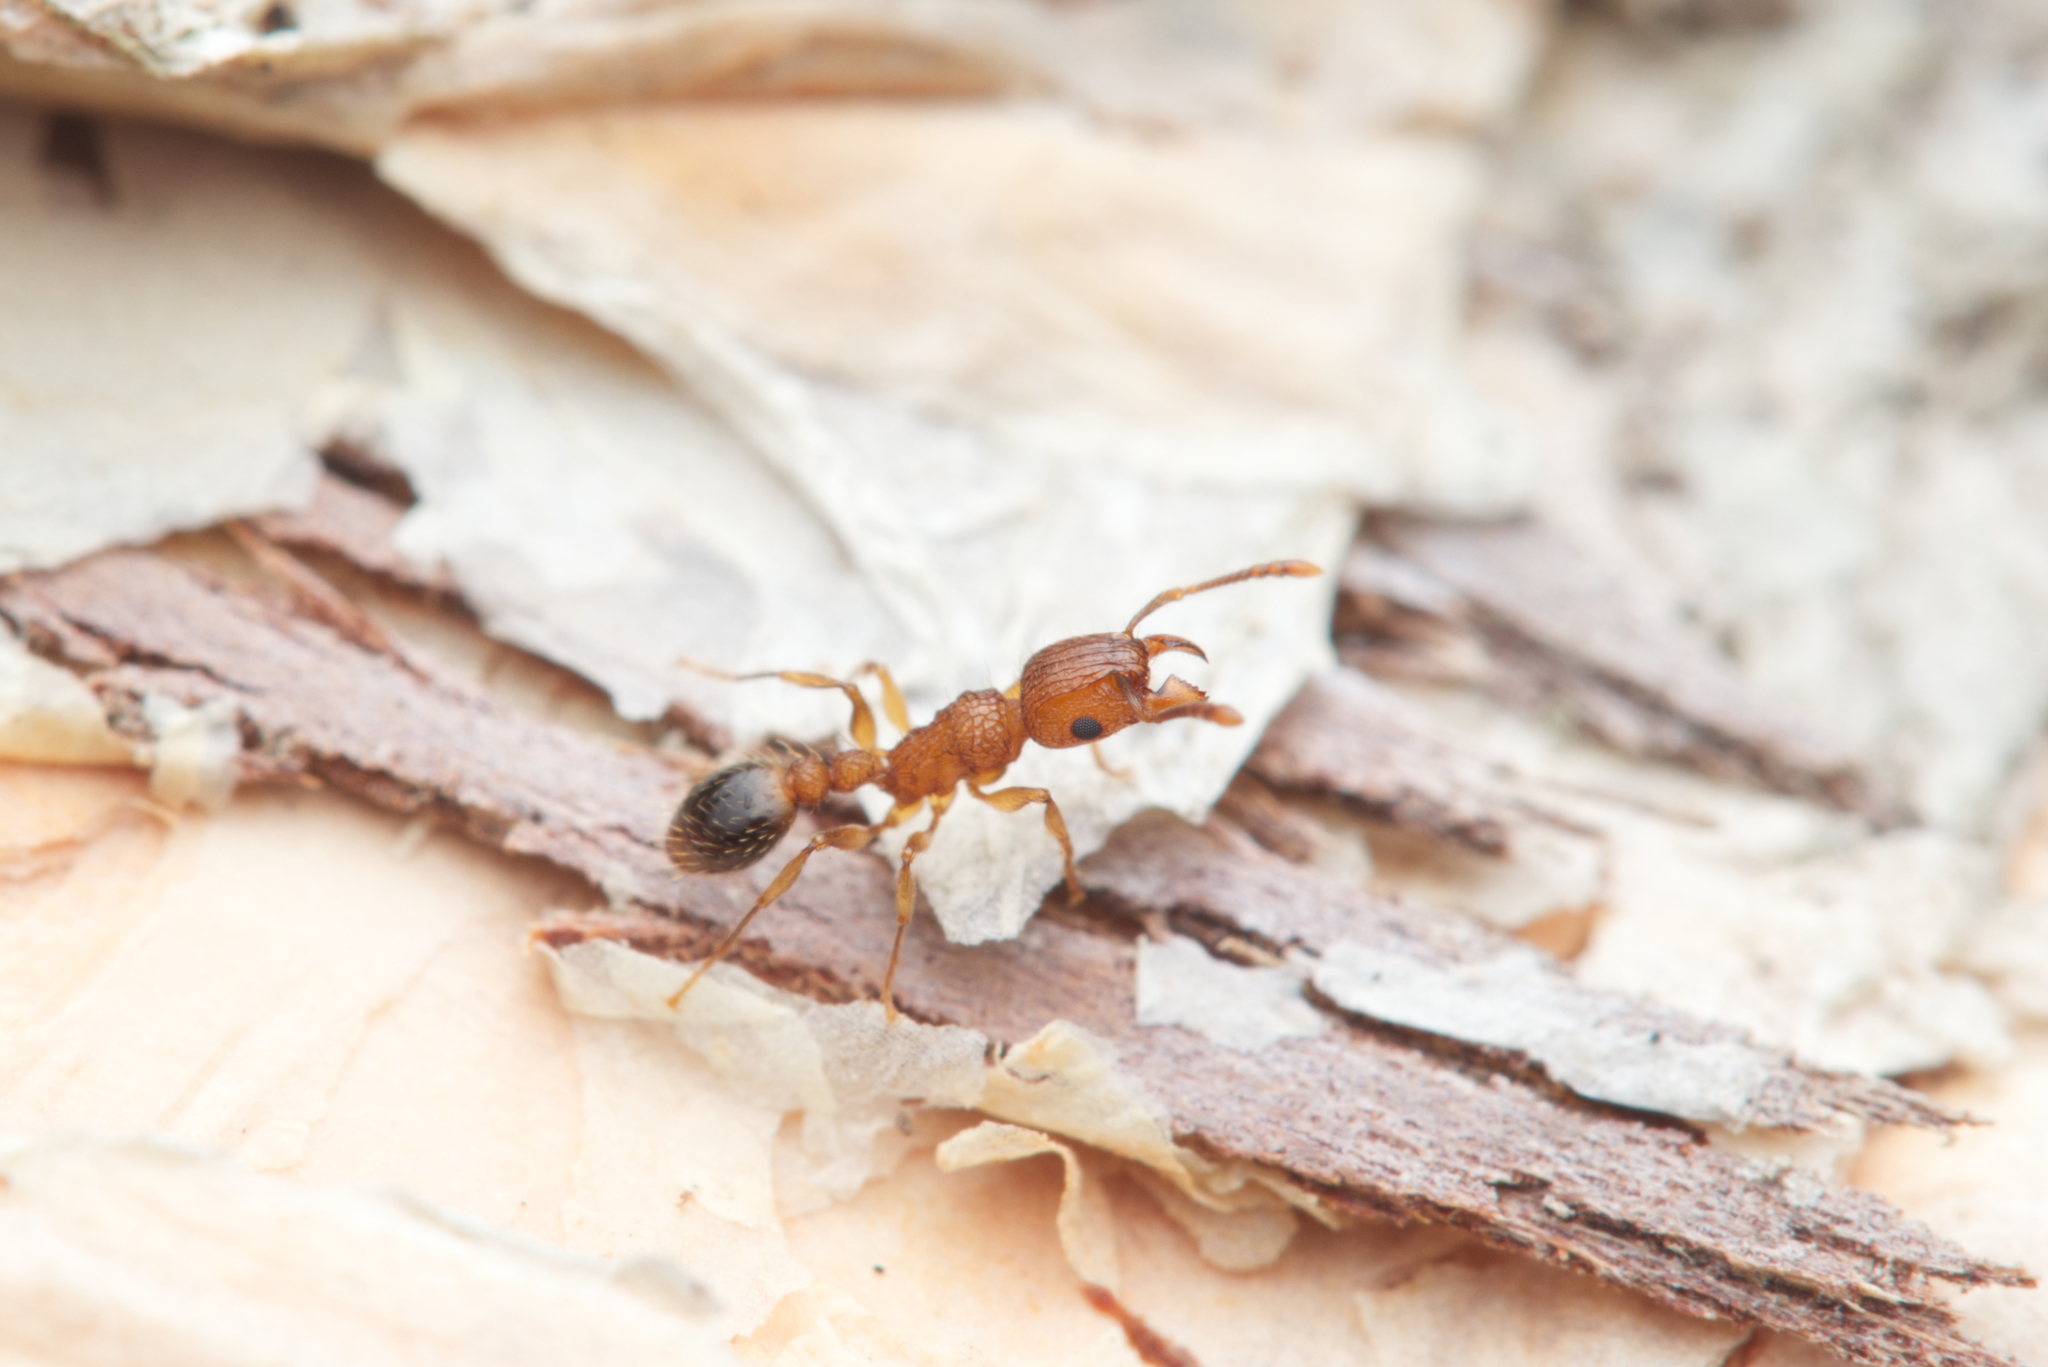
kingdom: Animalia
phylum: Arthropoda
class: Insecta
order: Hymenoptera
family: Formicidae
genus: Tetramorium
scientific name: Tetramorium bicarinatum
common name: Guinea ant
